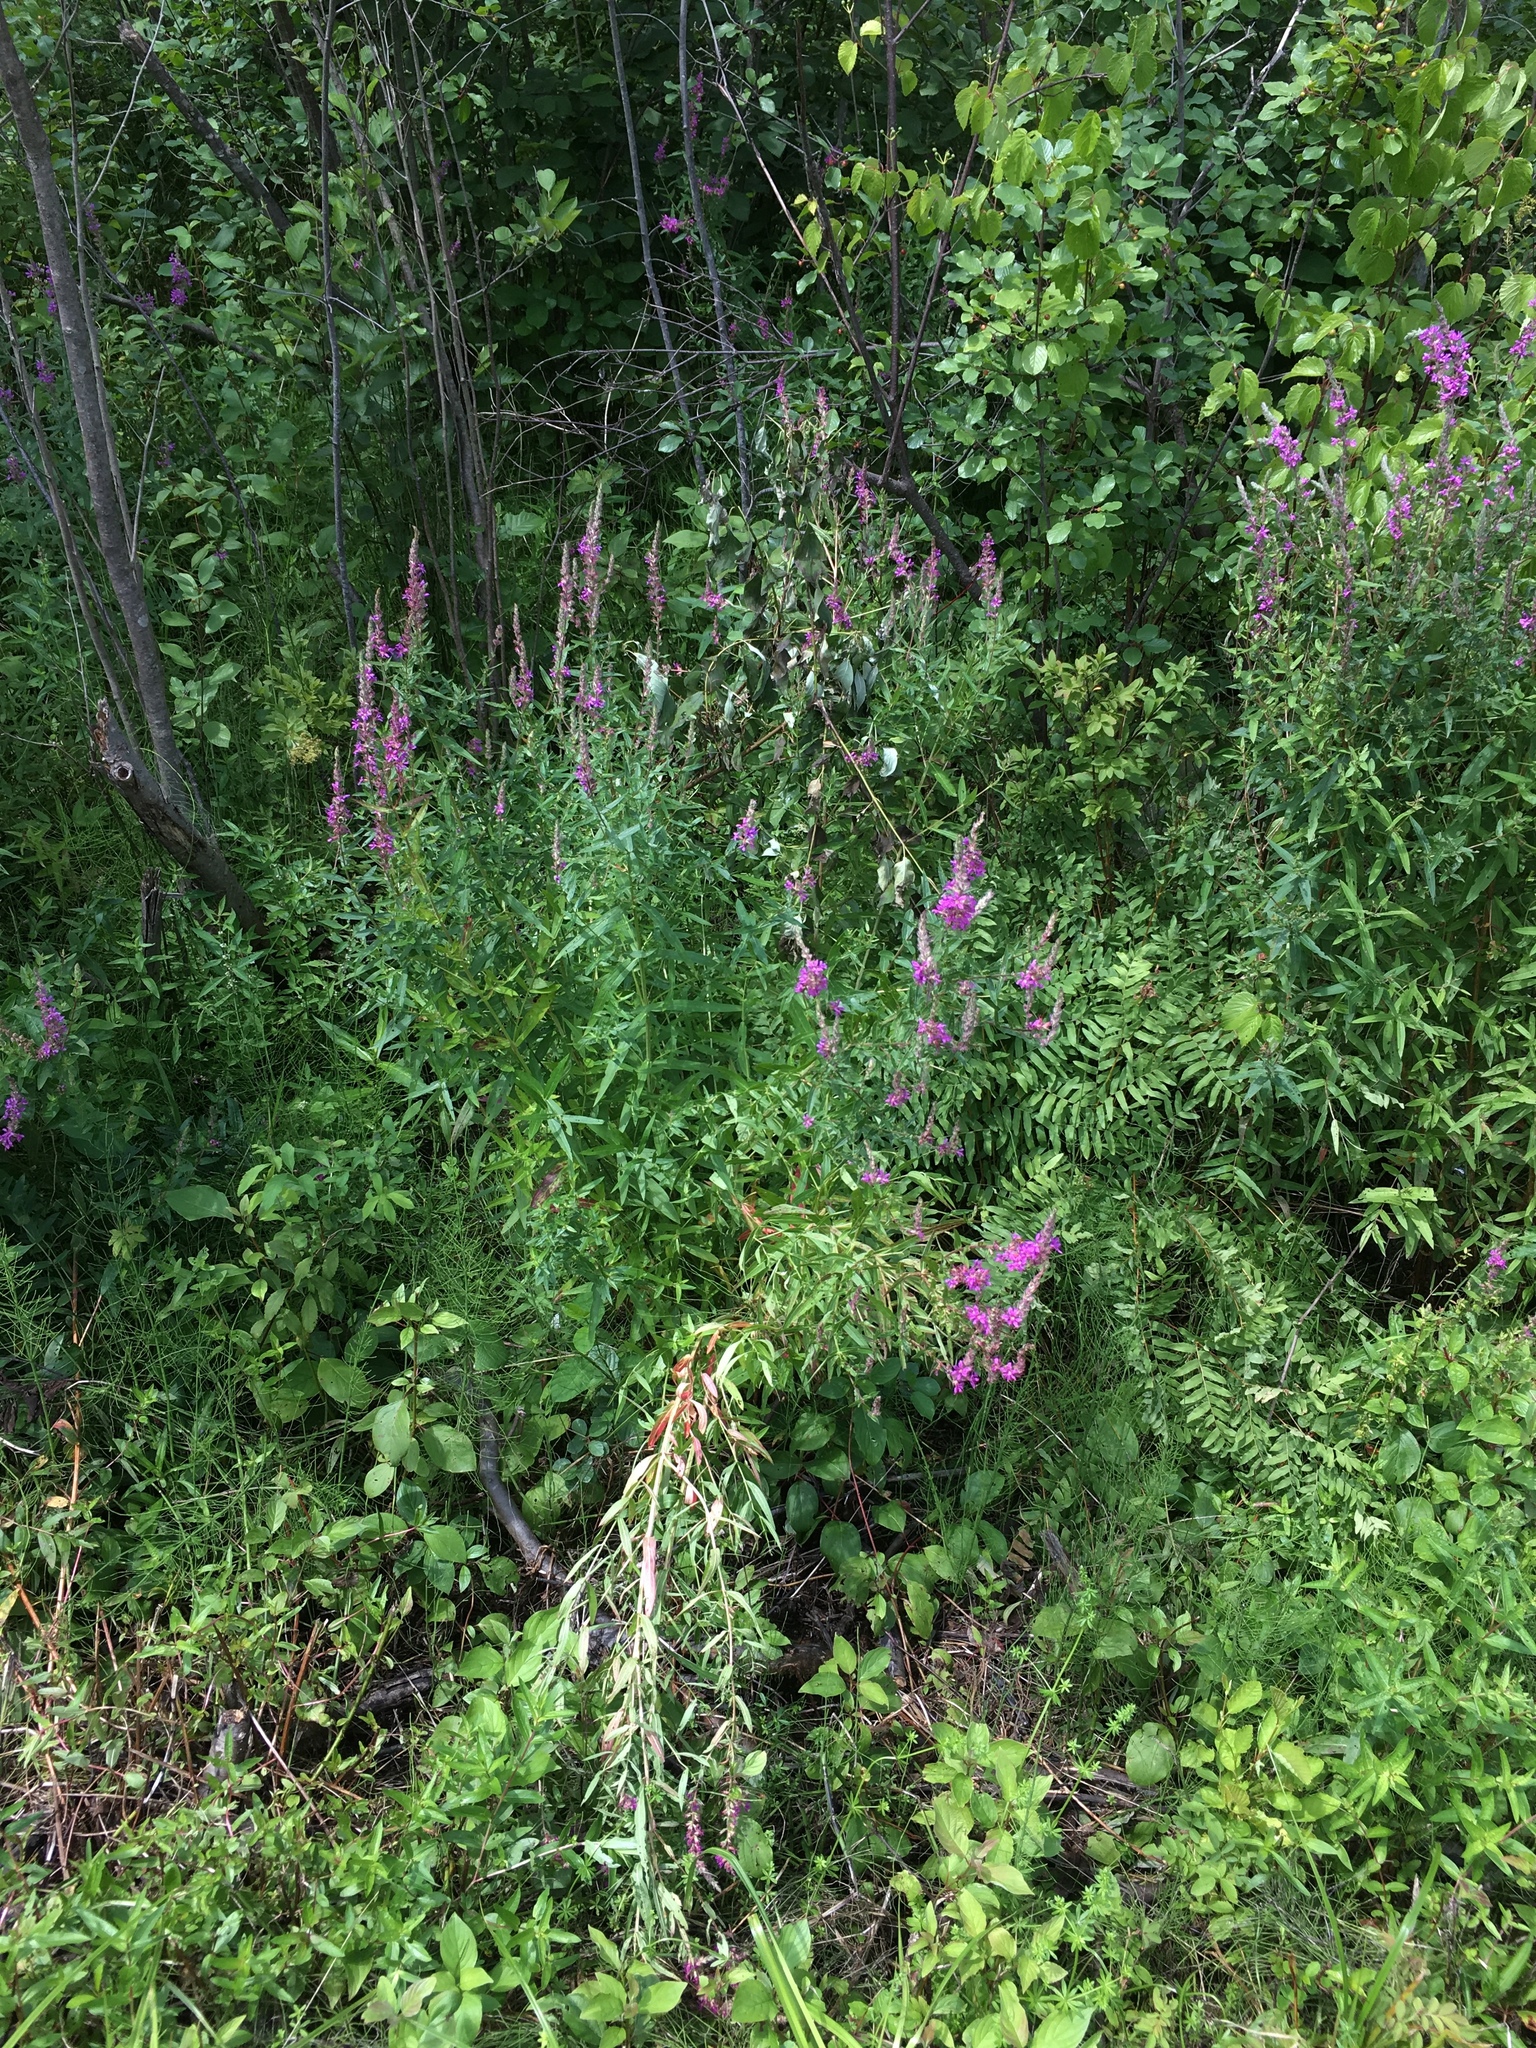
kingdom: Plantae
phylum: Tracheophyta
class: Magnoliopsida
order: Myrtales
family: Lythraceae
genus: Lythrum
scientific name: Lythrum salicaria
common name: Purple loosestrife
